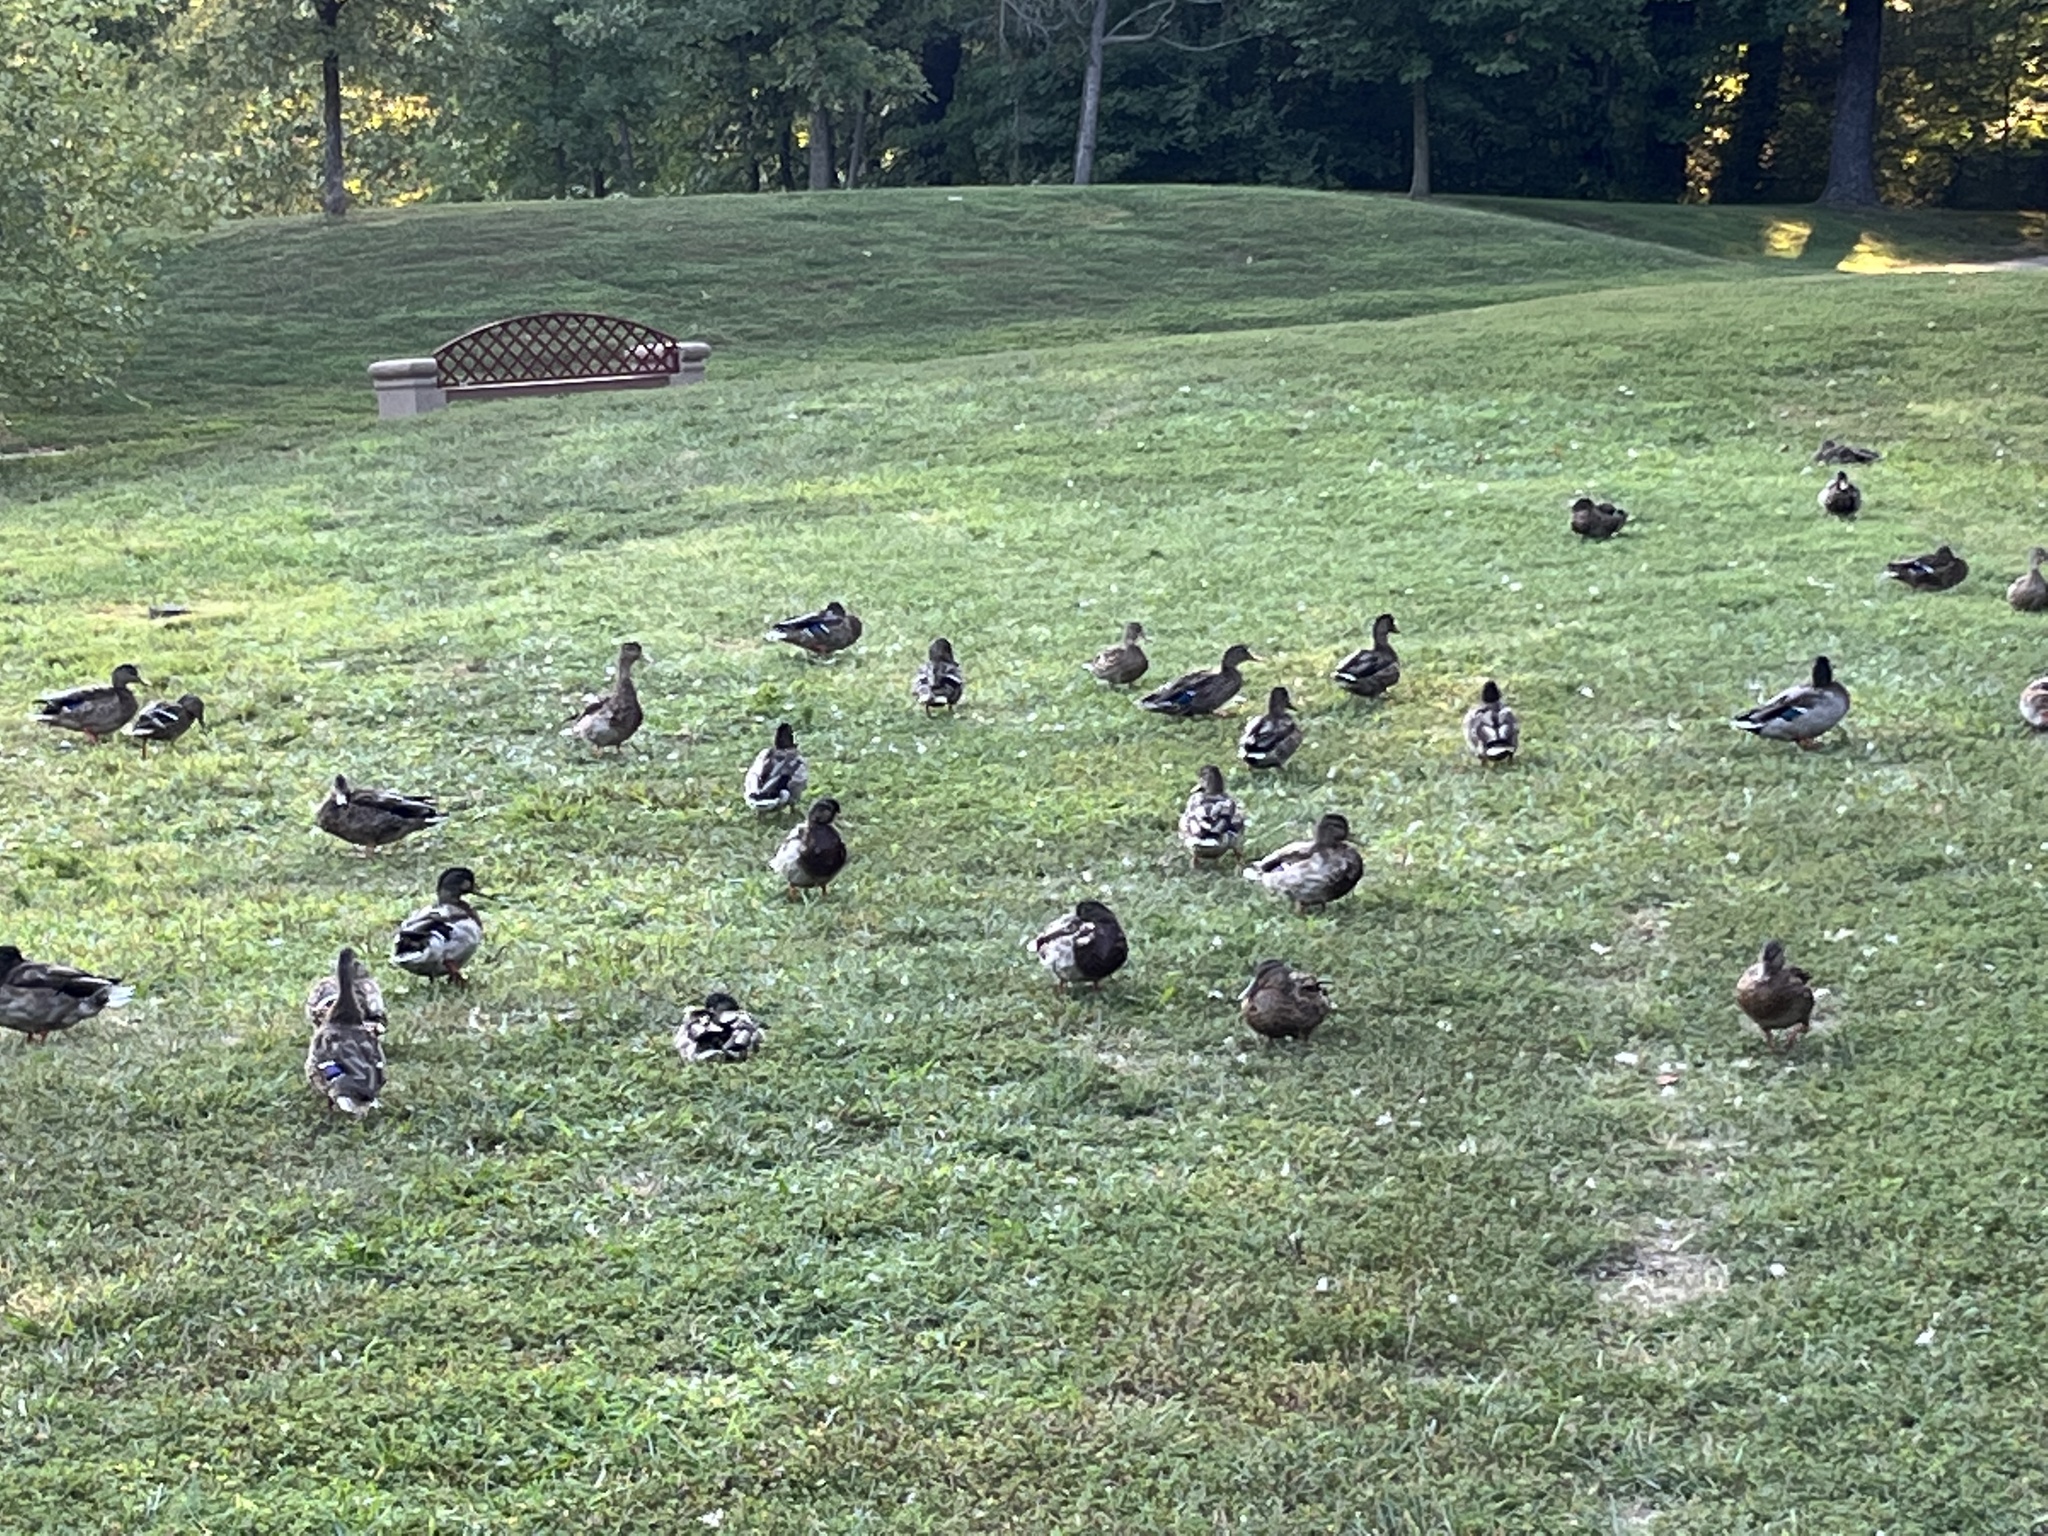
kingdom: Animalia
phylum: Chordata
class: Aves
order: Anseriformes
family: Anatidae
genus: Anas
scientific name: Anas platyrhynchos
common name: Mallard
